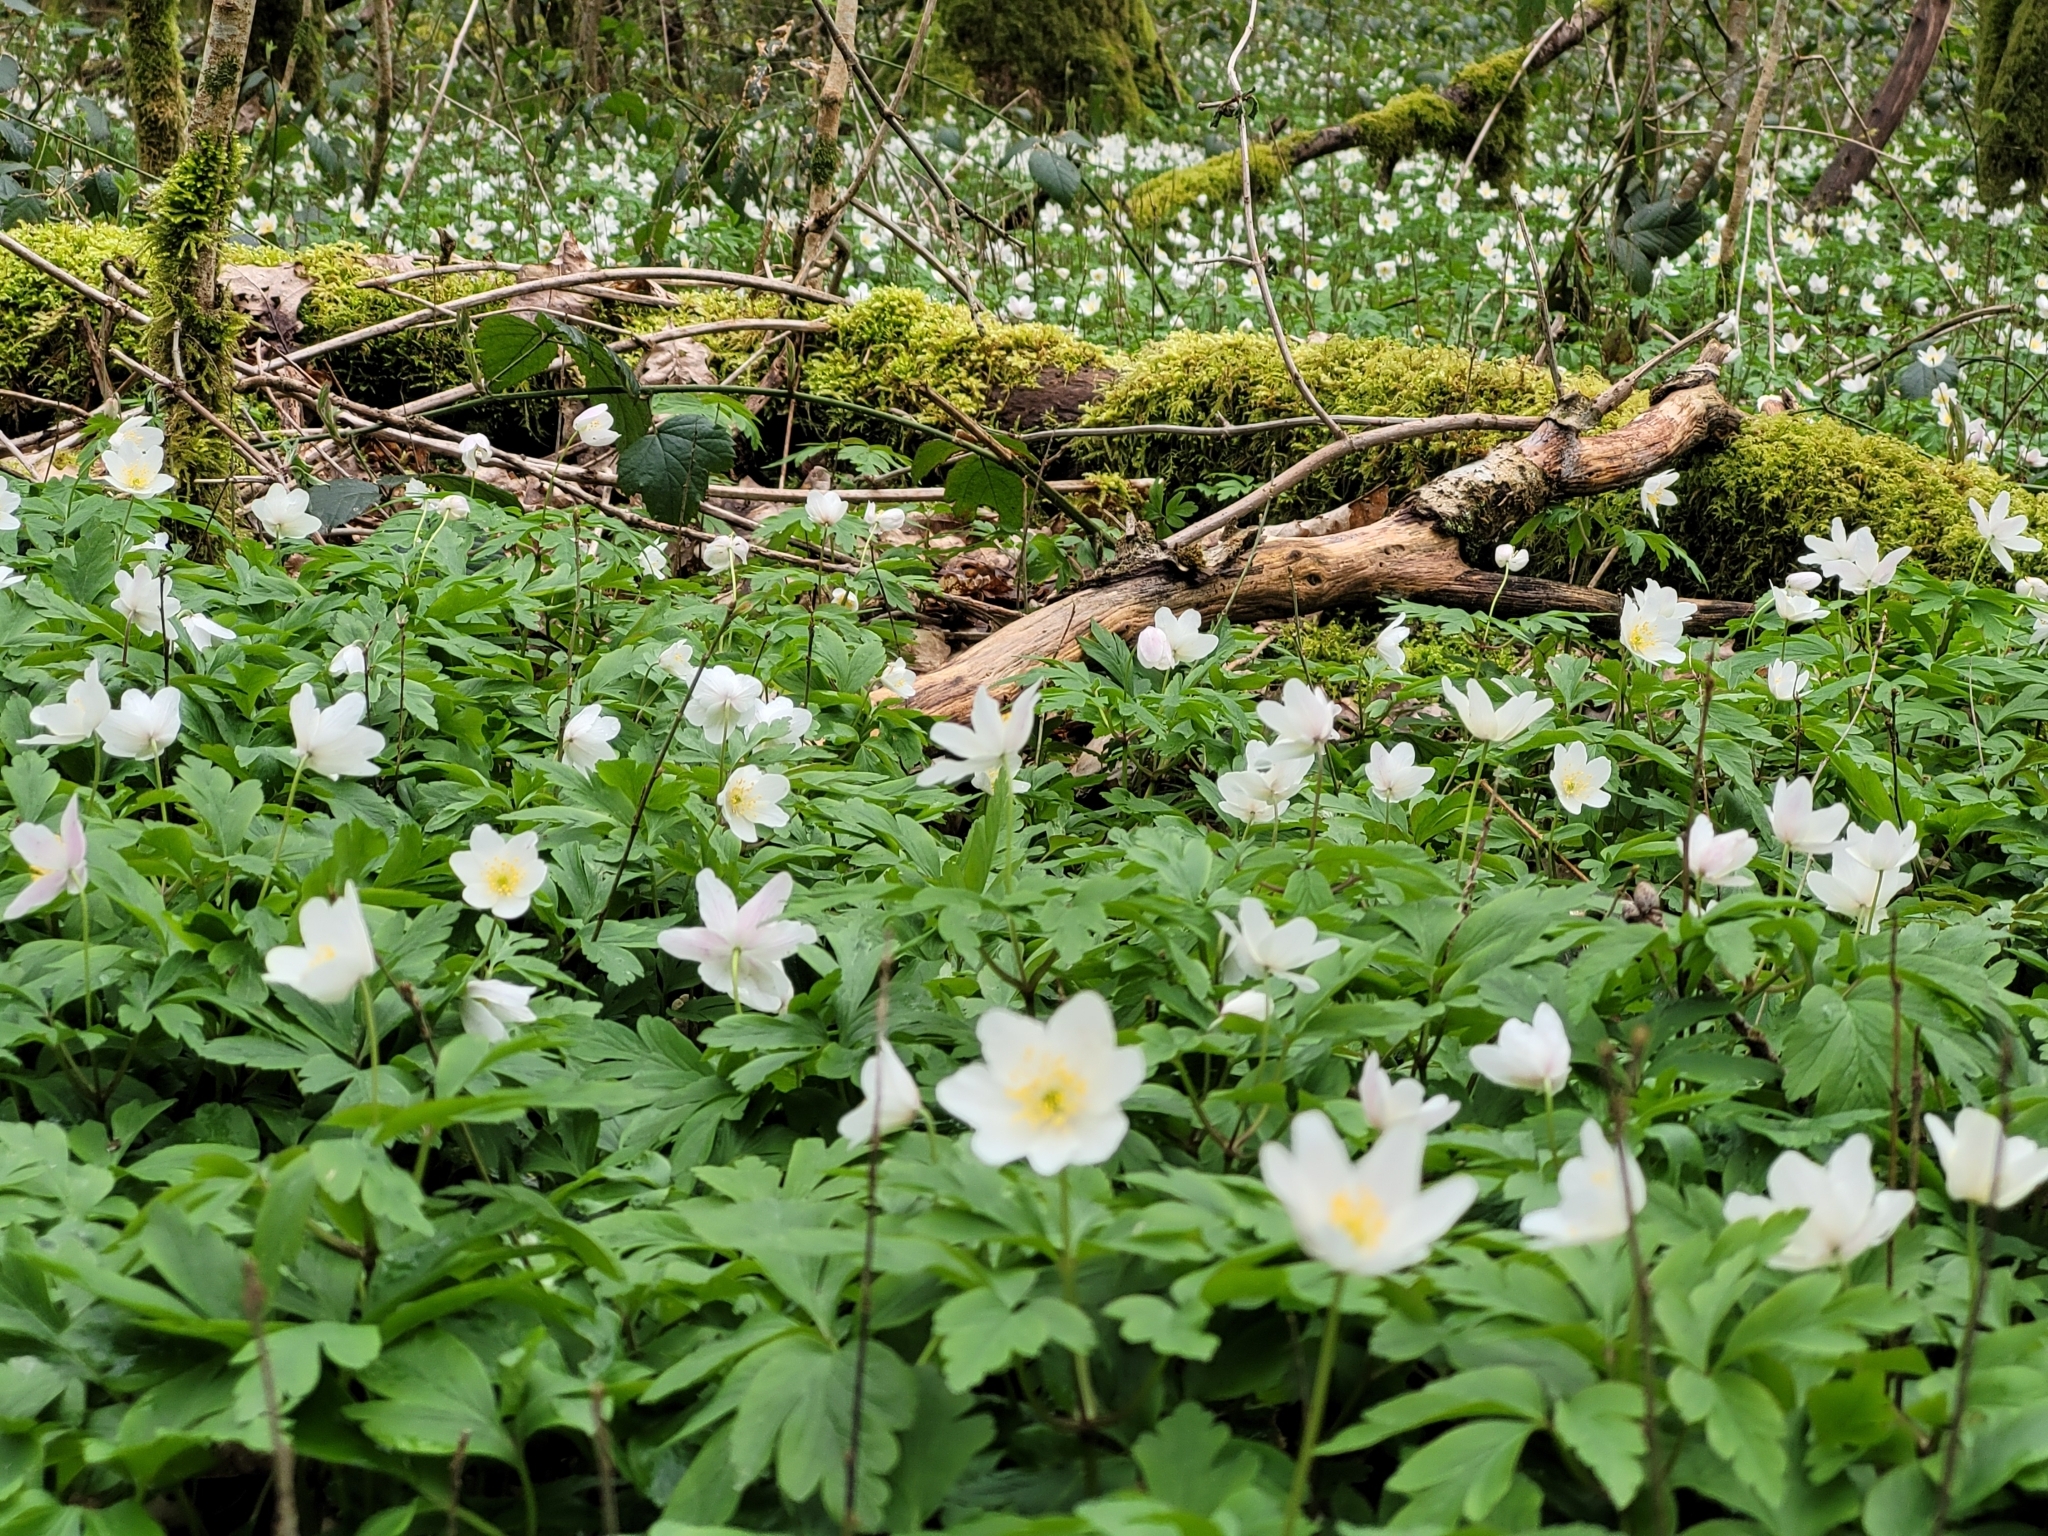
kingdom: Plantae
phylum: Tracheophyta
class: Magnoliopsida
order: Ranunculales
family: Ranunculaceae
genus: Anemone
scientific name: Anemone nemorosa
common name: Wood anemone
